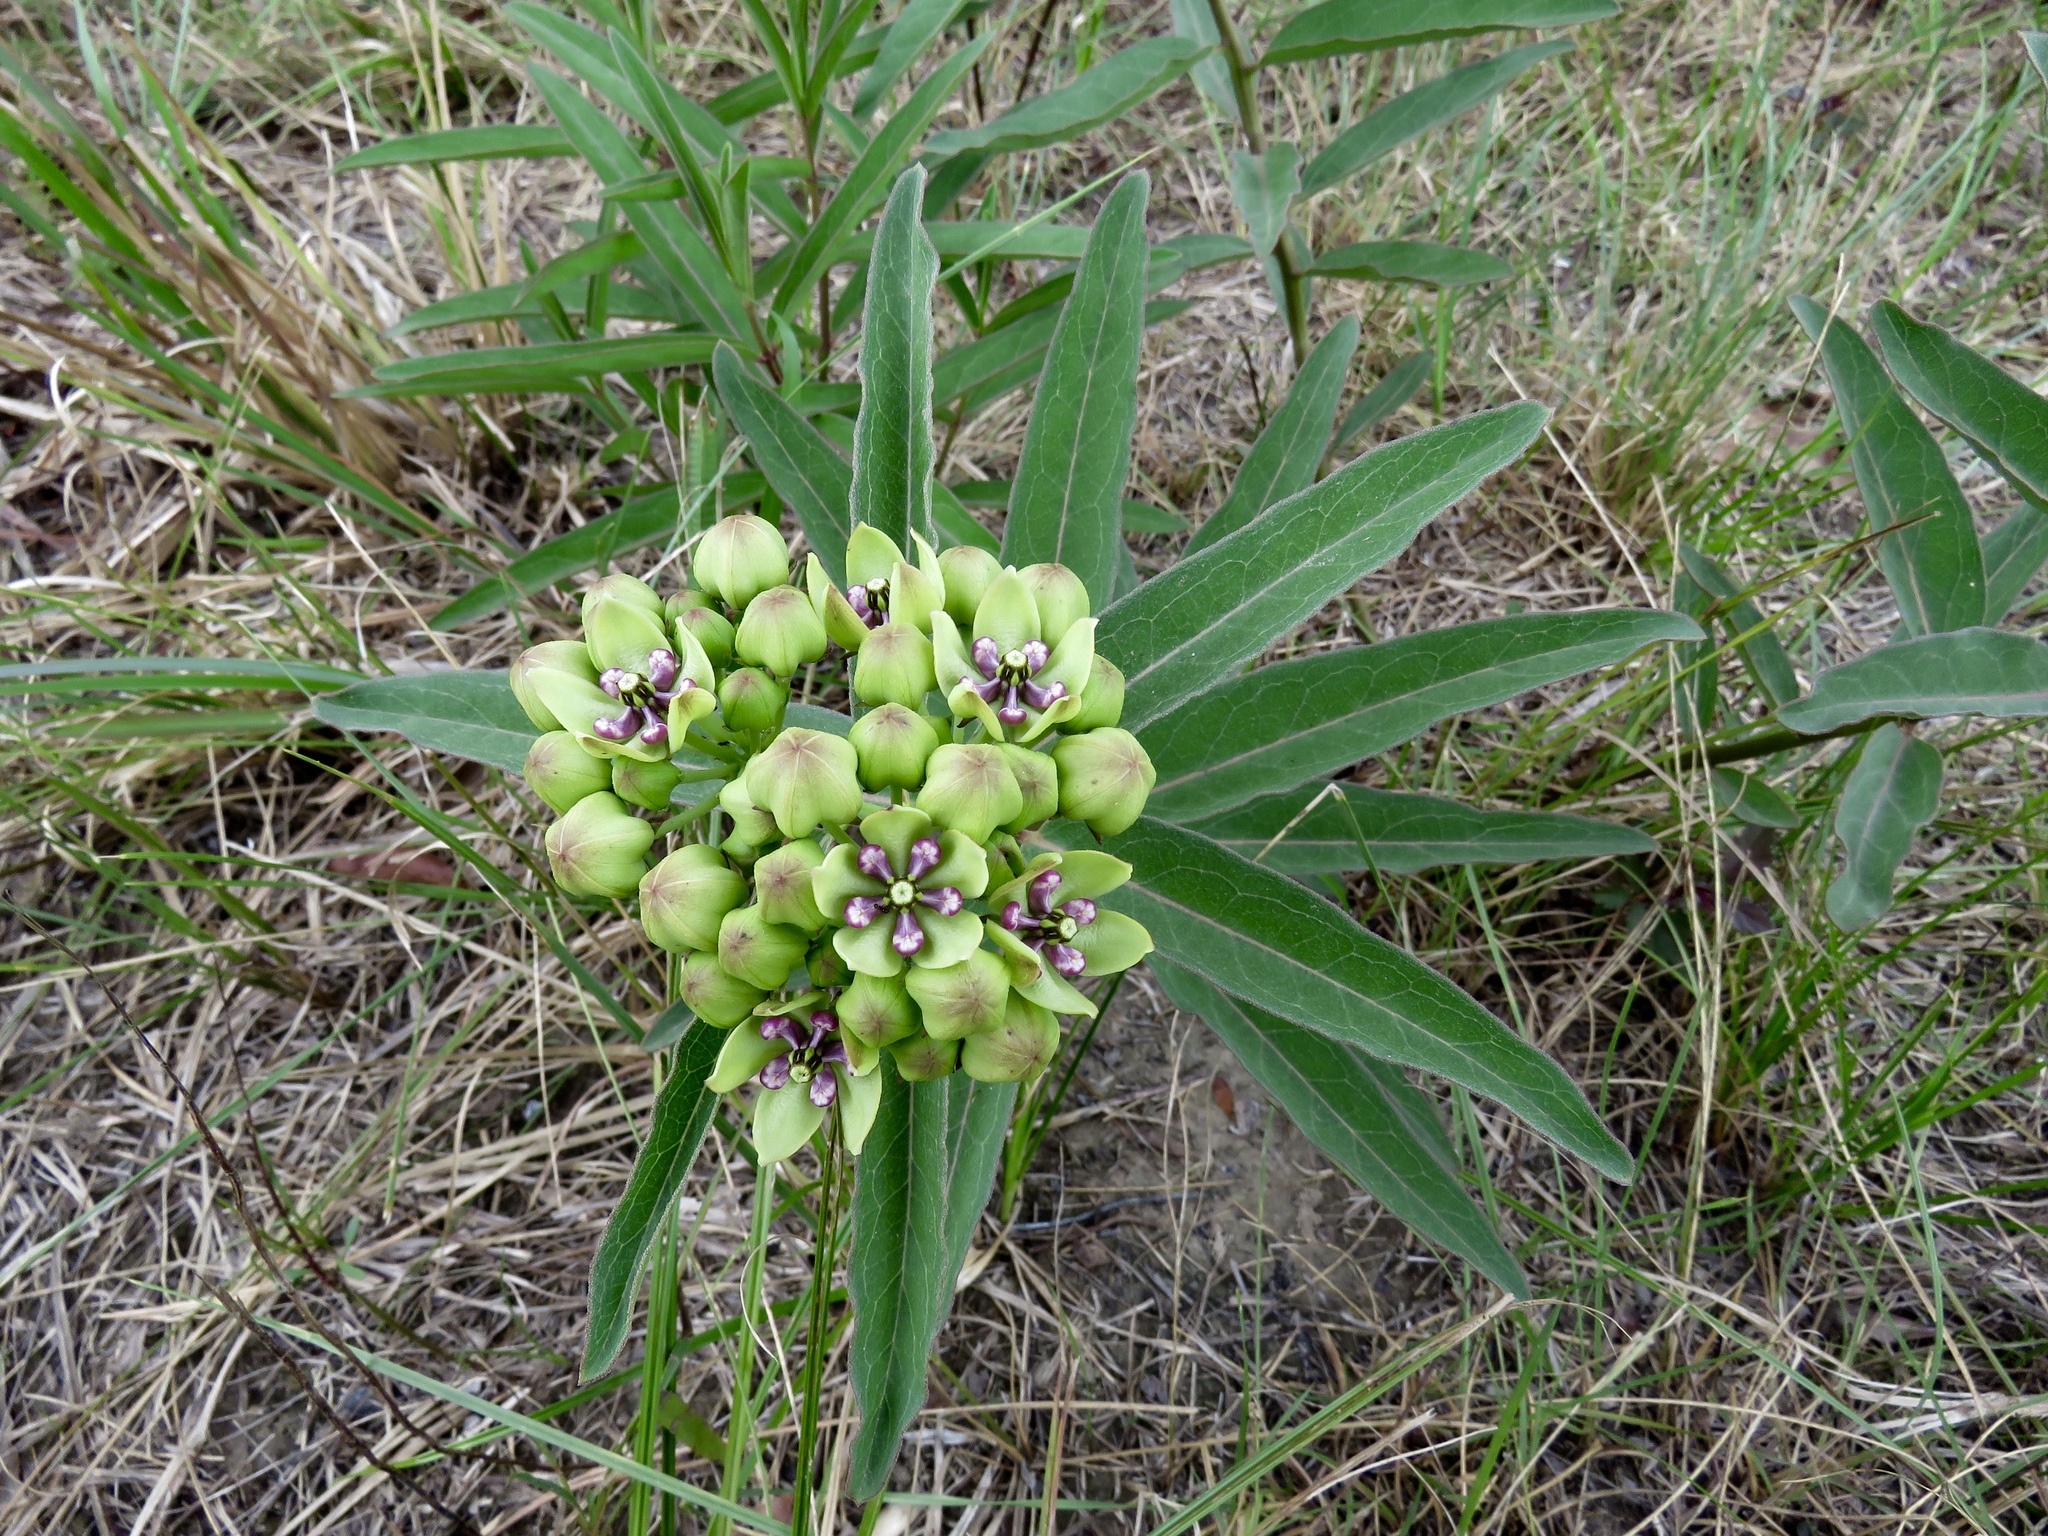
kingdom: Plantae
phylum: Tracheophyta
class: Magnoliopsida
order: Gentianales
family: Apocynaceae
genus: Asclepias
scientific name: Asclepias viridis
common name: Antelope-horns
